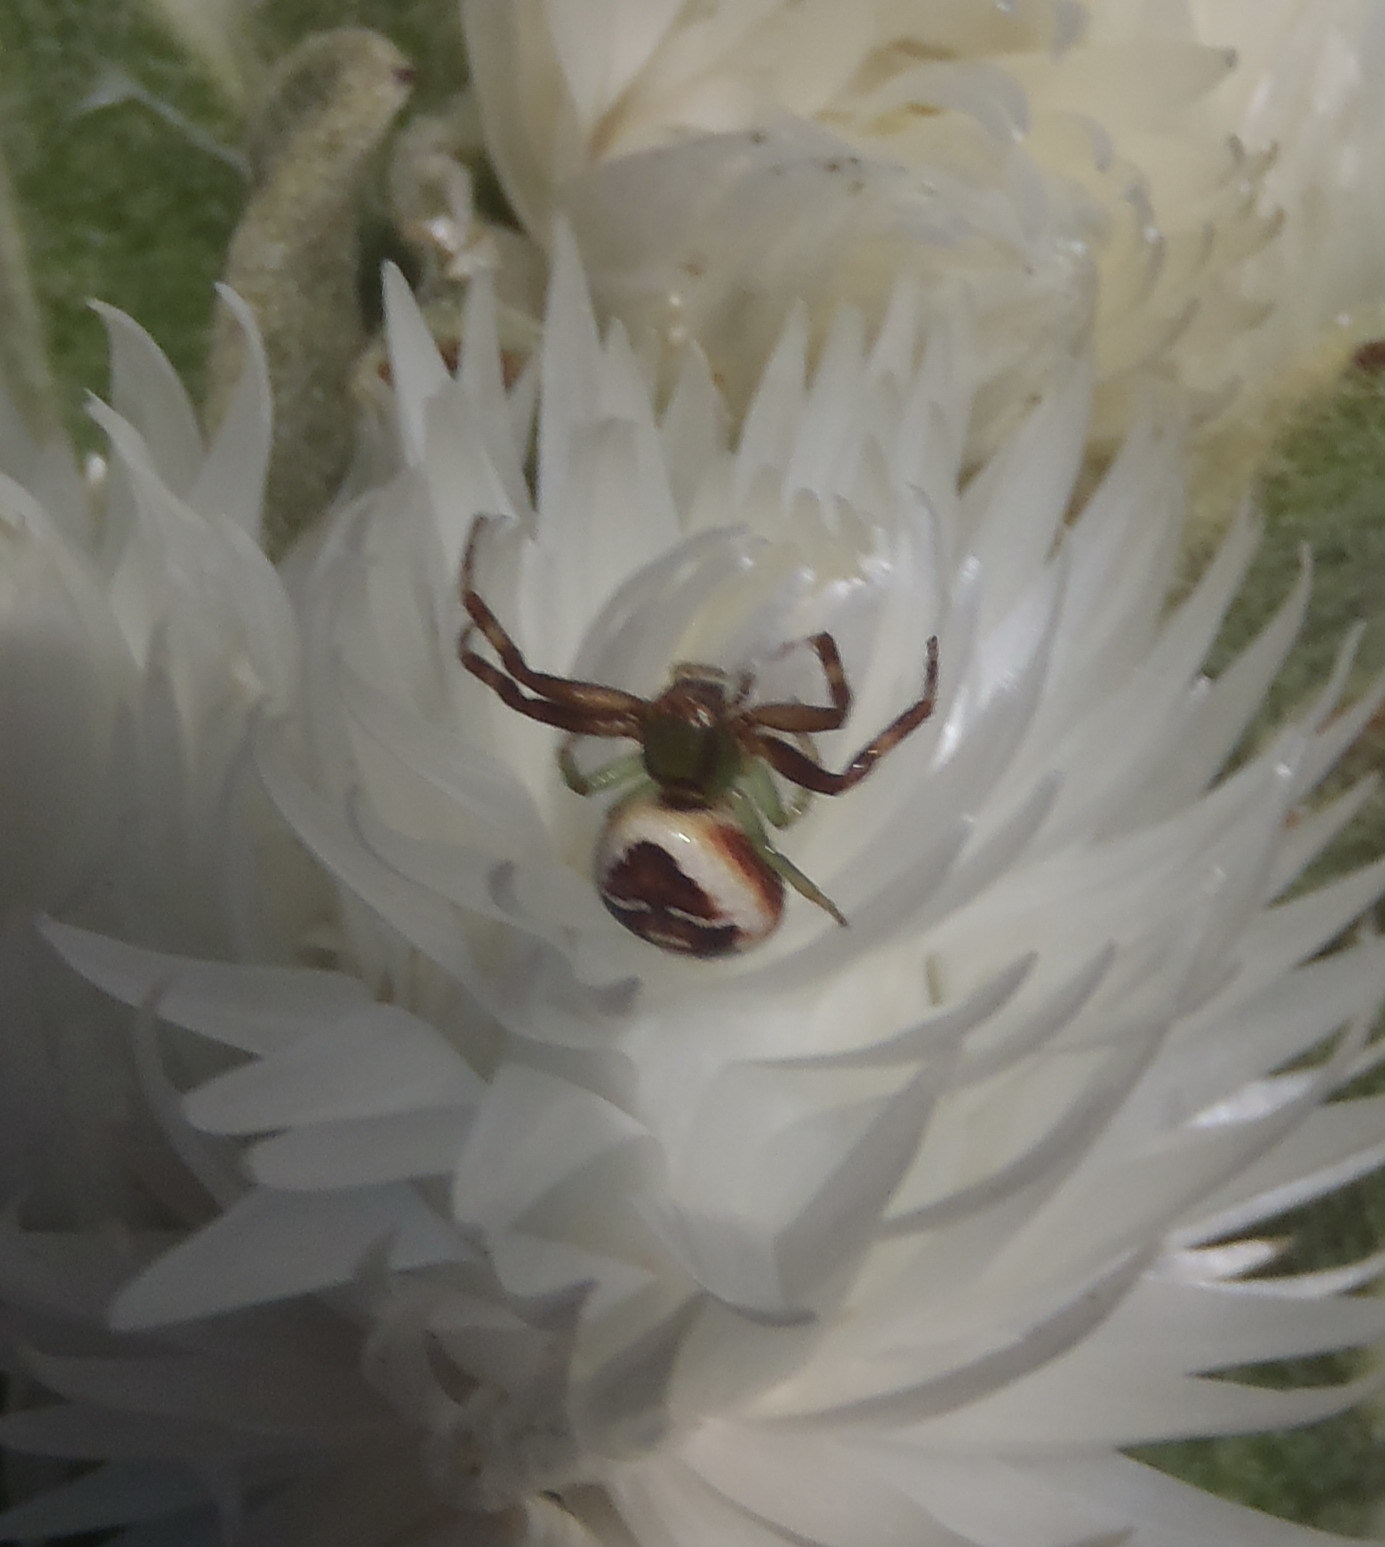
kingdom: Animalia
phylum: Arthropoda
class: Arachnida
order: Araneae
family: Thomisidae
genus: Synema
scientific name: Synema imitatrix
